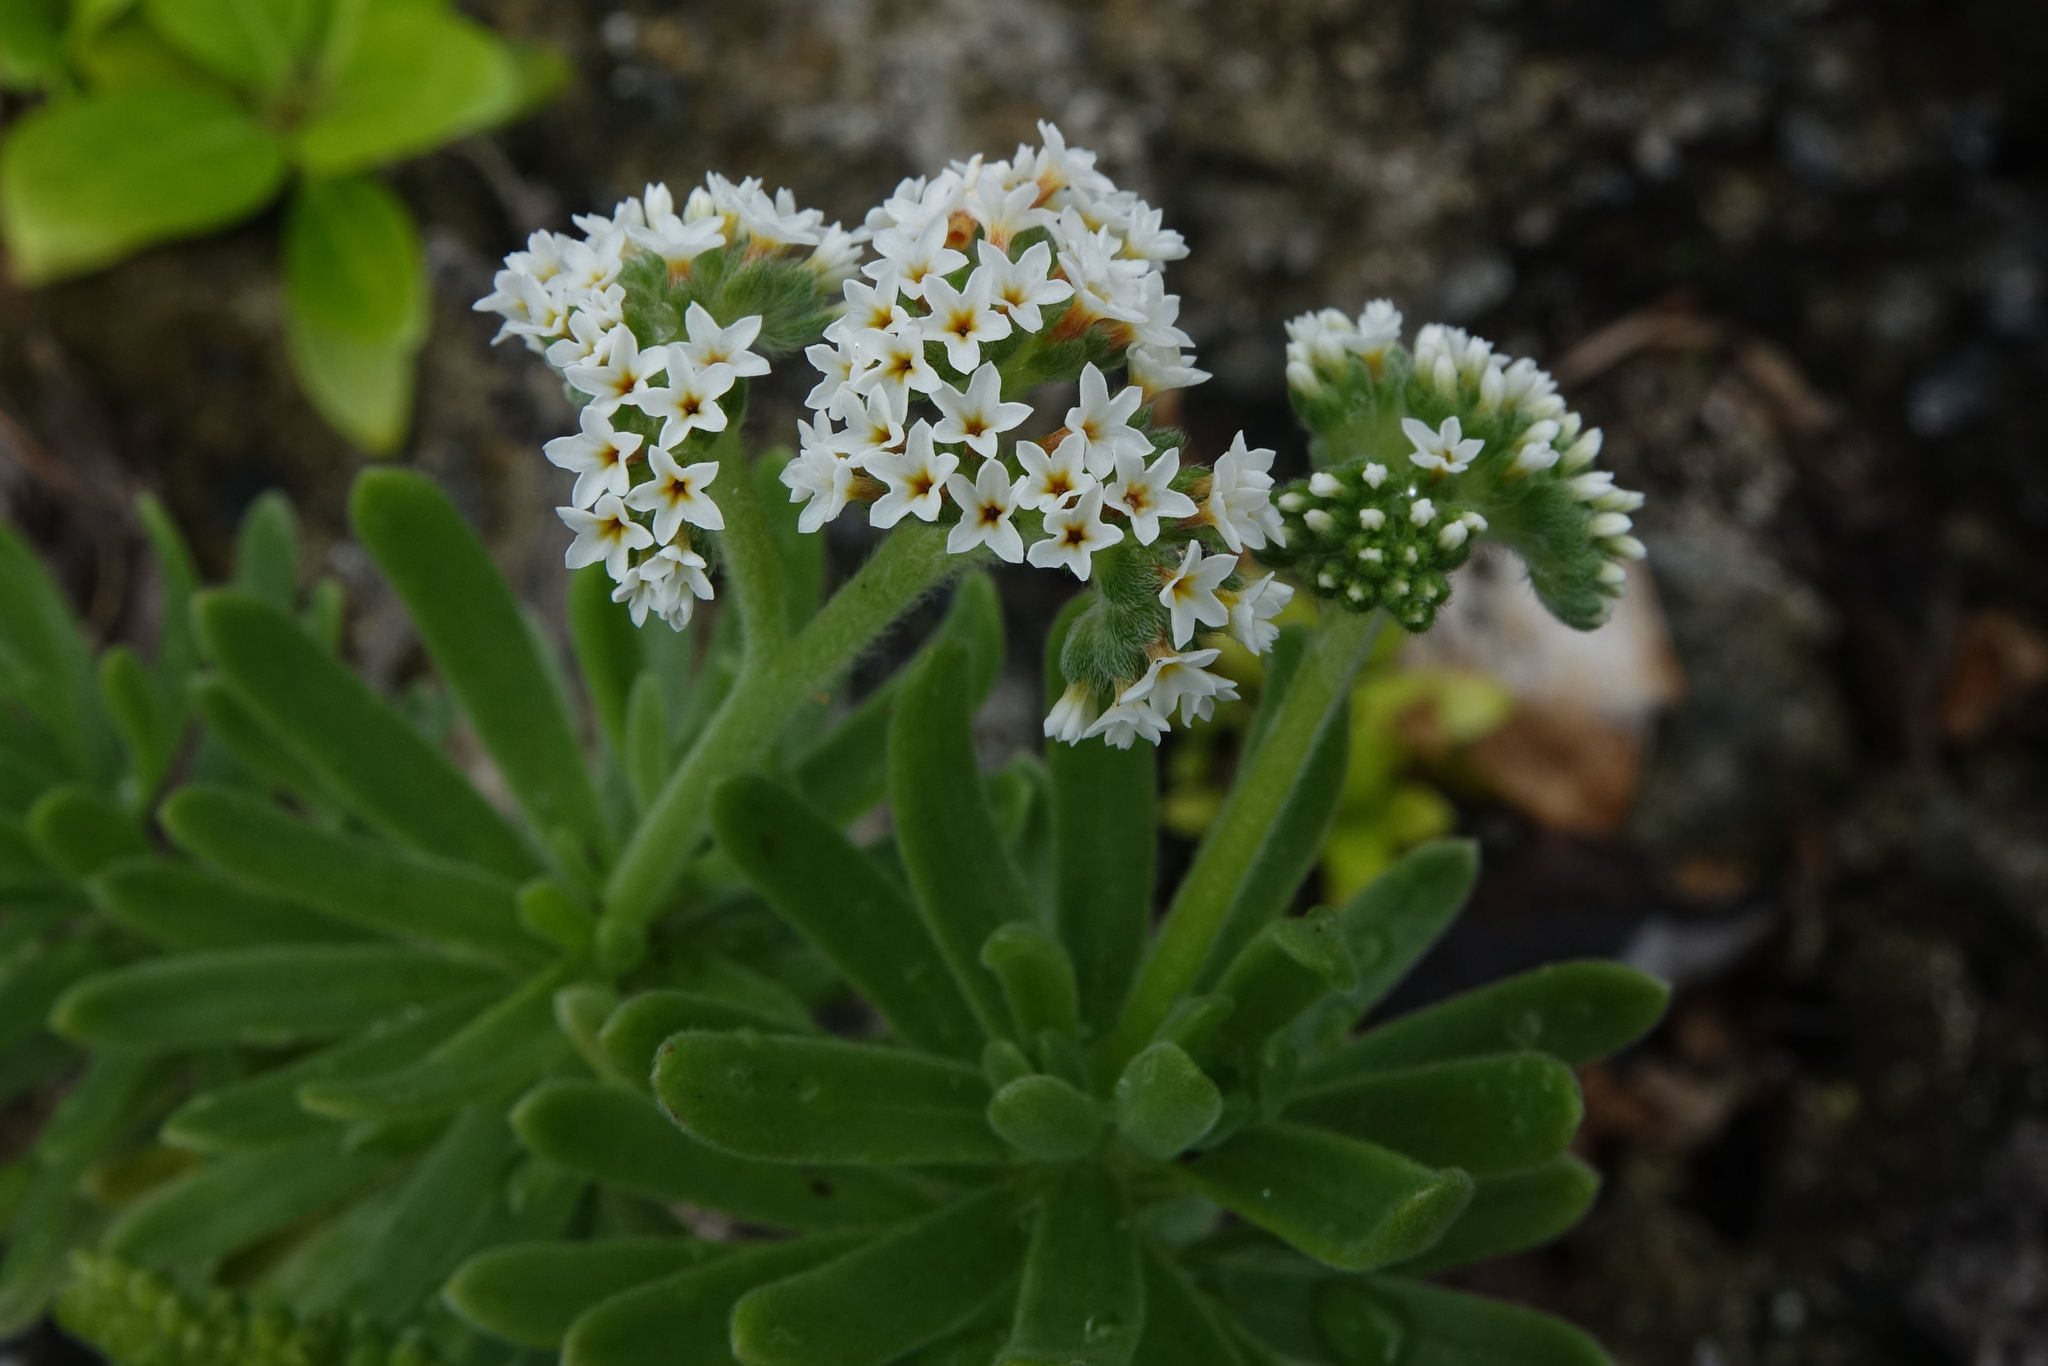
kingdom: Plantae
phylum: Tracheophyta
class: Magnoliopsida
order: Boraginales
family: Heliotropiaceae
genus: Heliotropium
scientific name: Heliotropium anomalum
